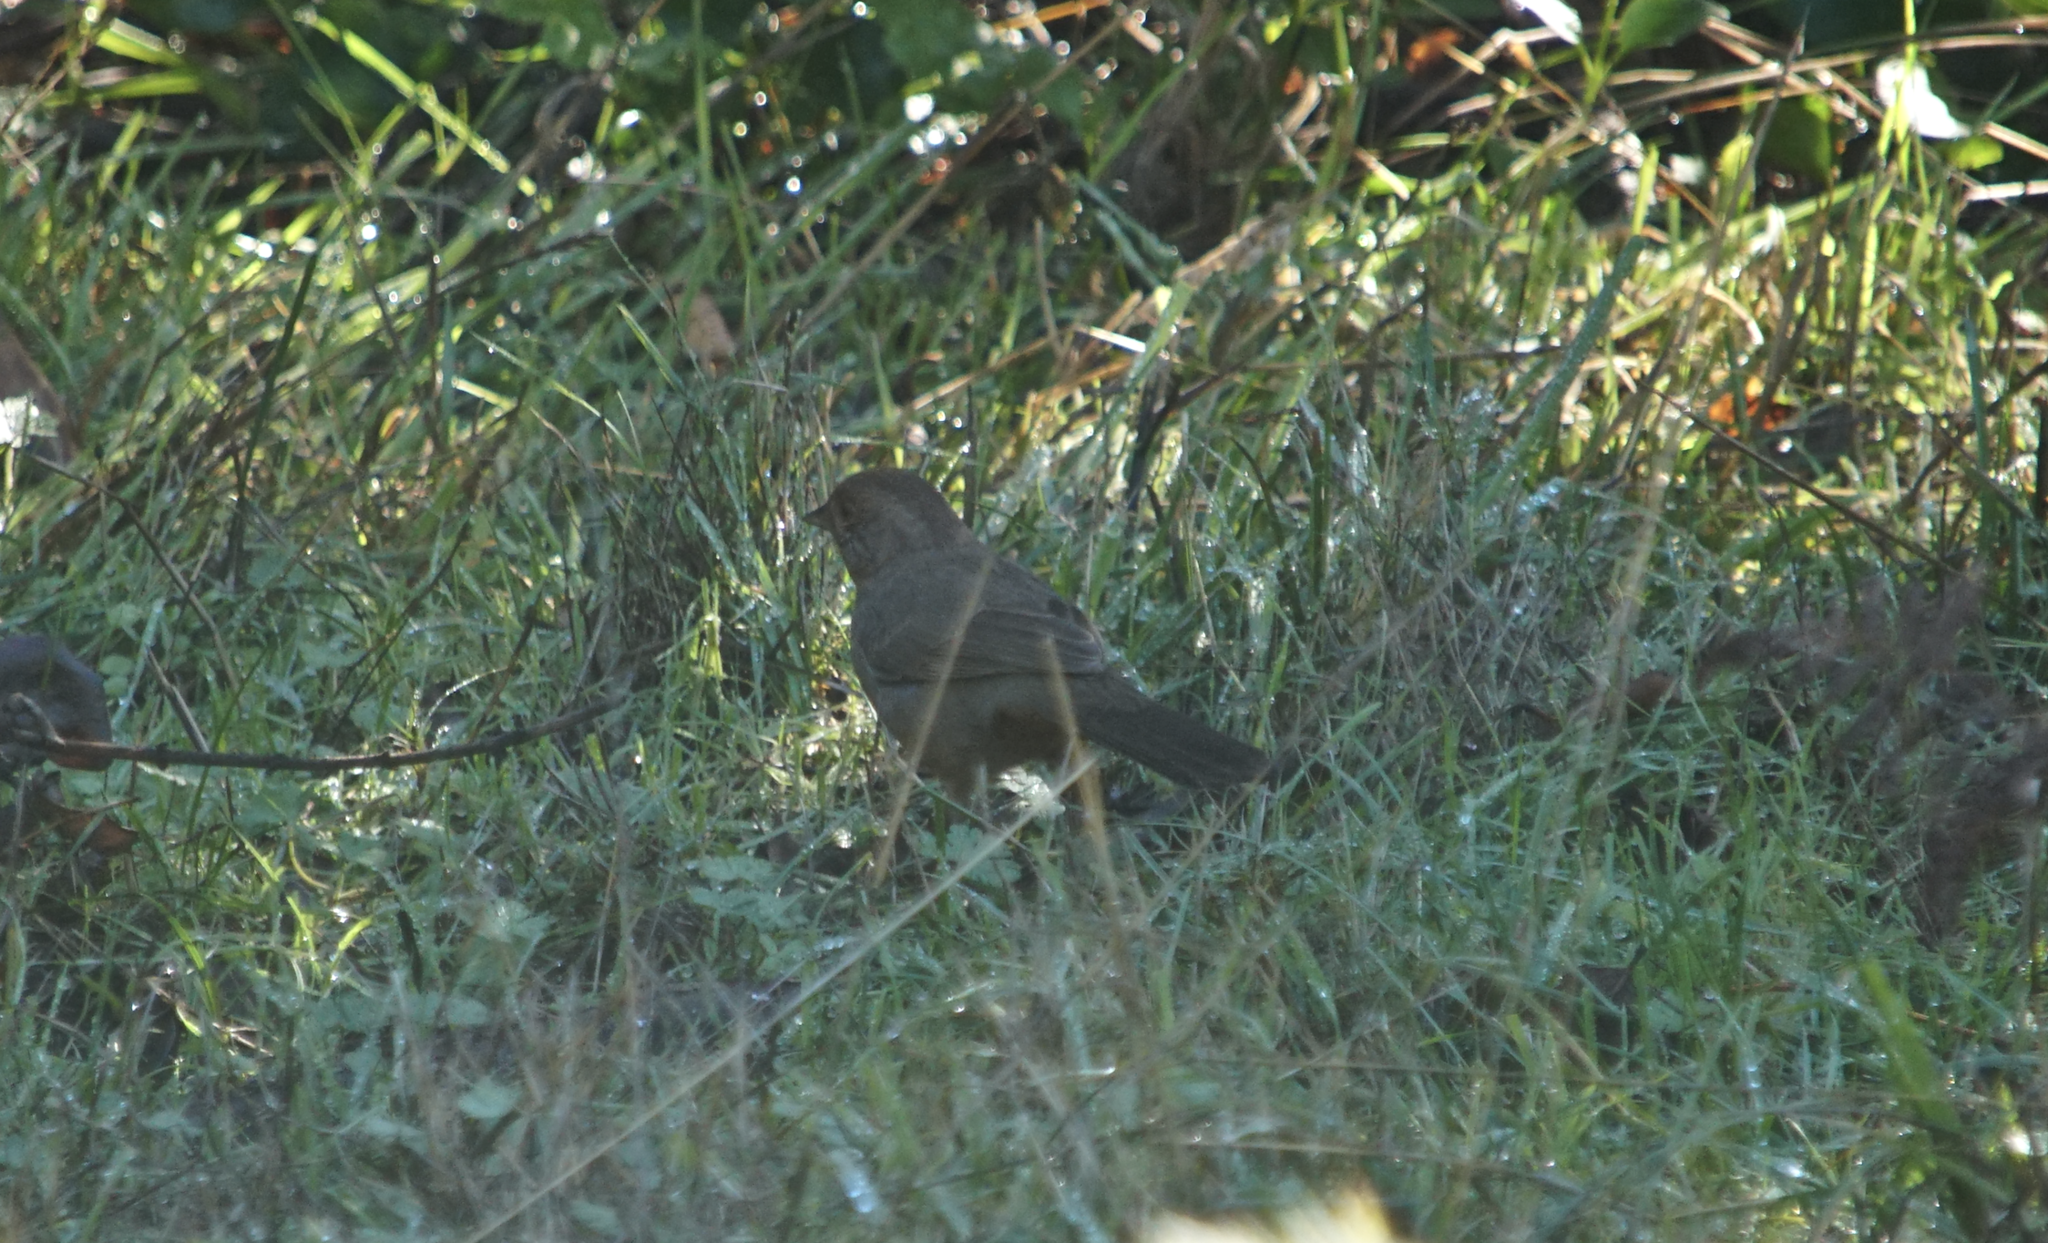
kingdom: Animalia
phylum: Chordata
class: Aves
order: Passeriformes
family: Passerellidae
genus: Melozone
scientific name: Melozone crissalis
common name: California towhee
